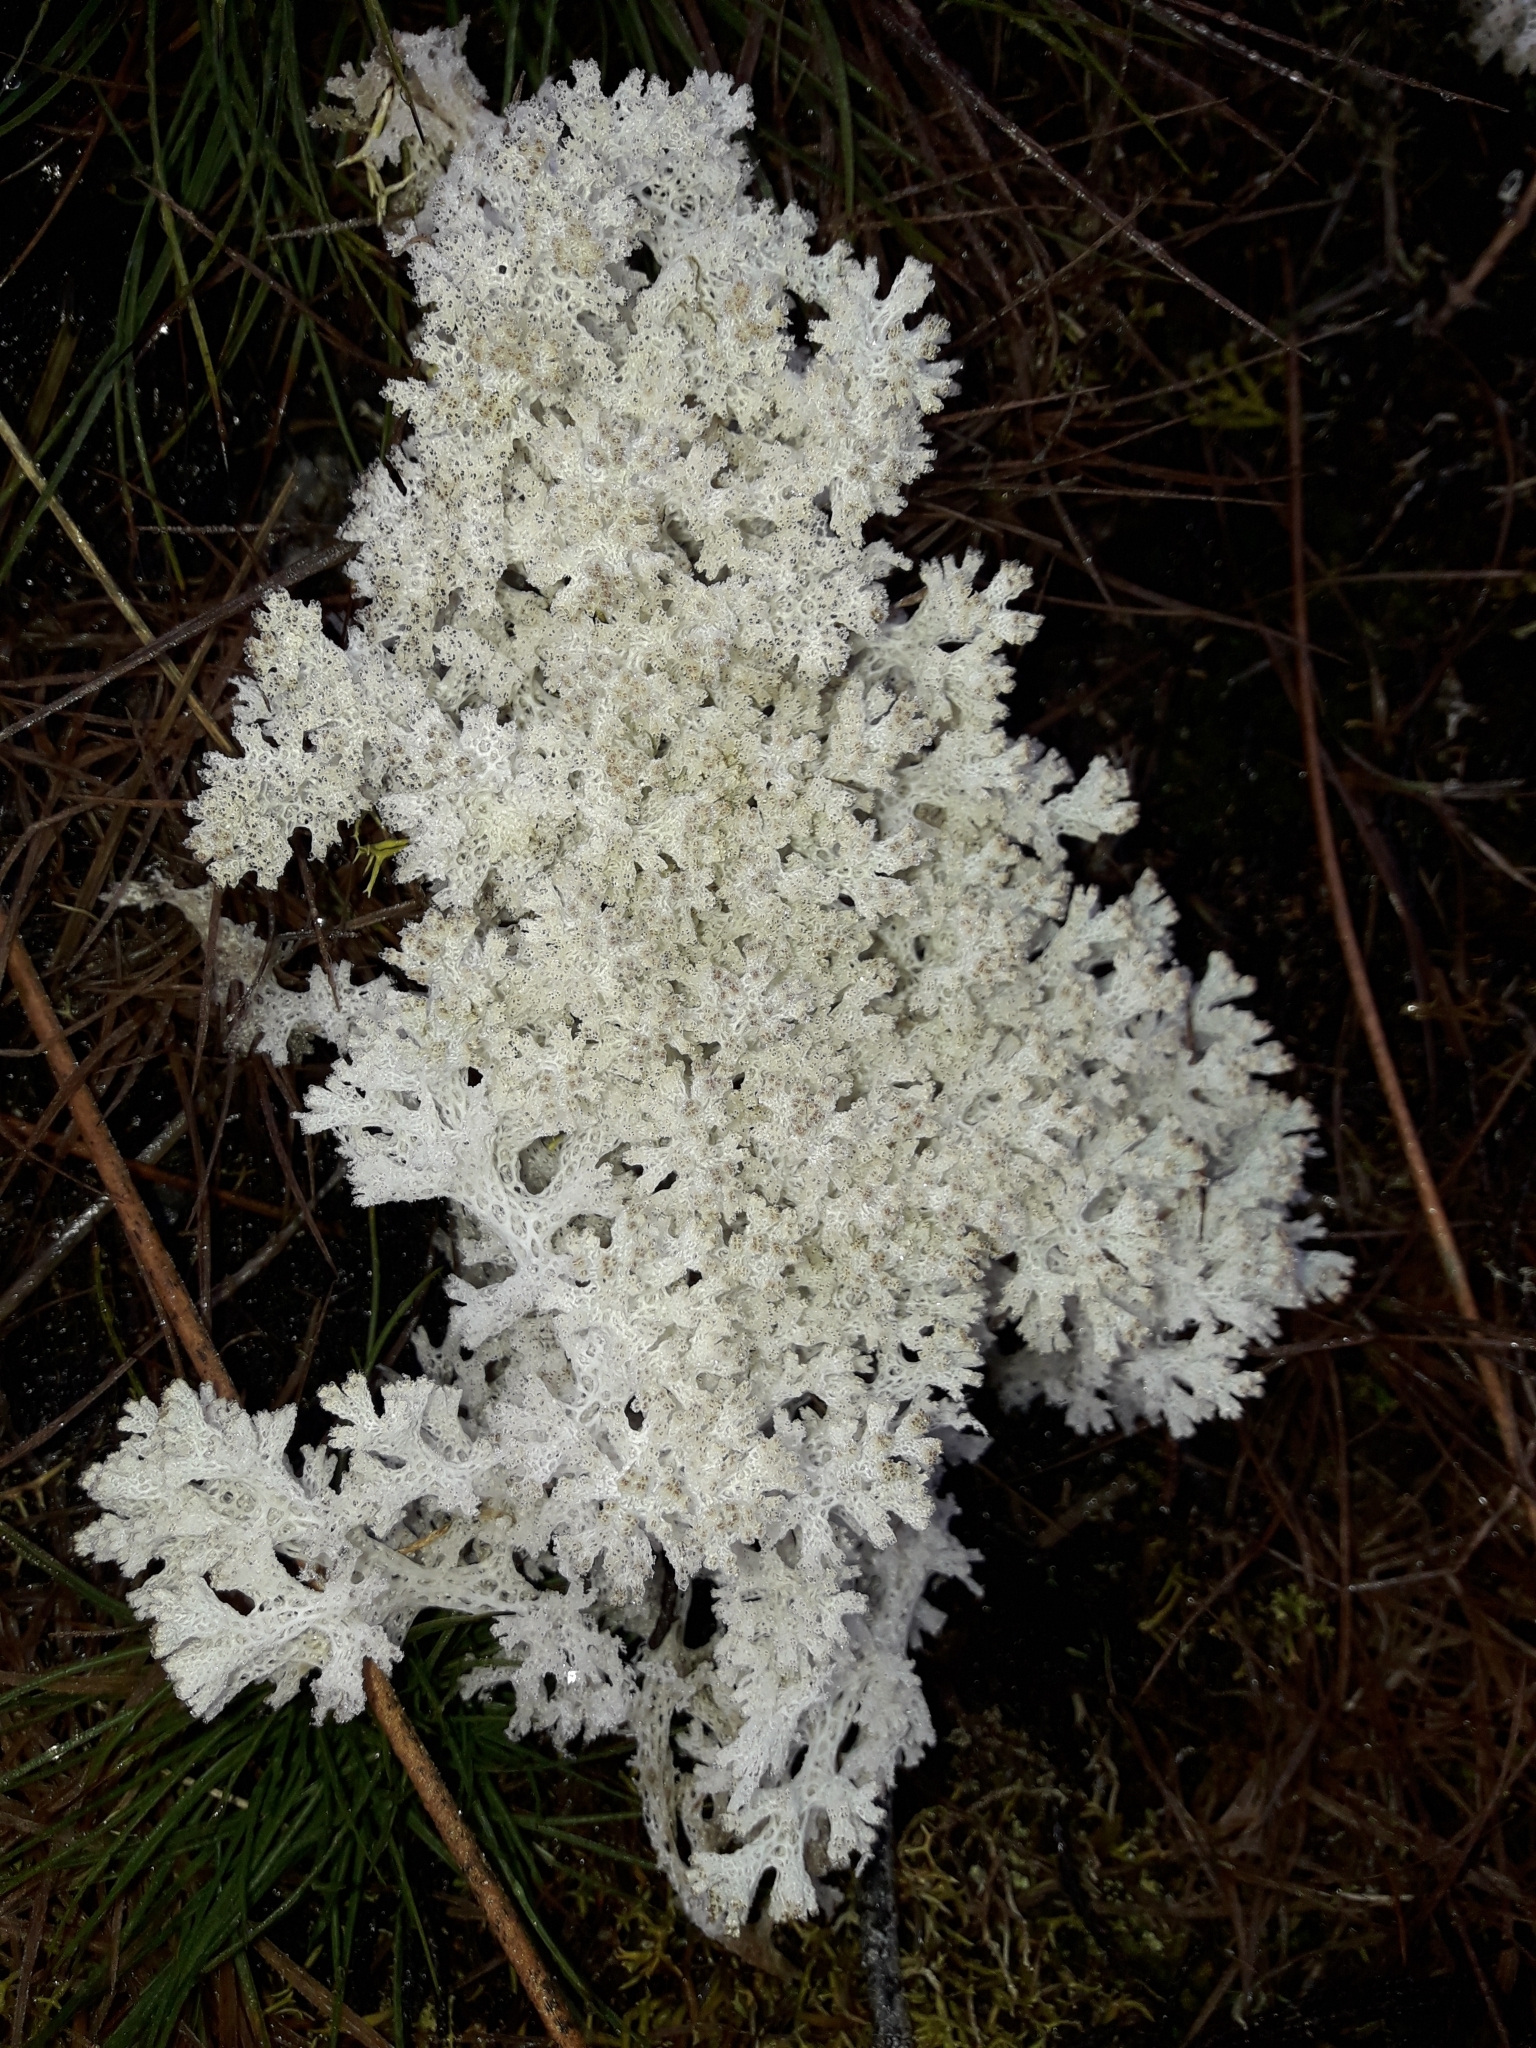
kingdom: Fungi
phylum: Ascomycota
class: Lecanoromycetes
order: Lecanorales
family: Cladoniaceae
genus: Pulchrocladia
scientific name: Pulchrocladia retipora
